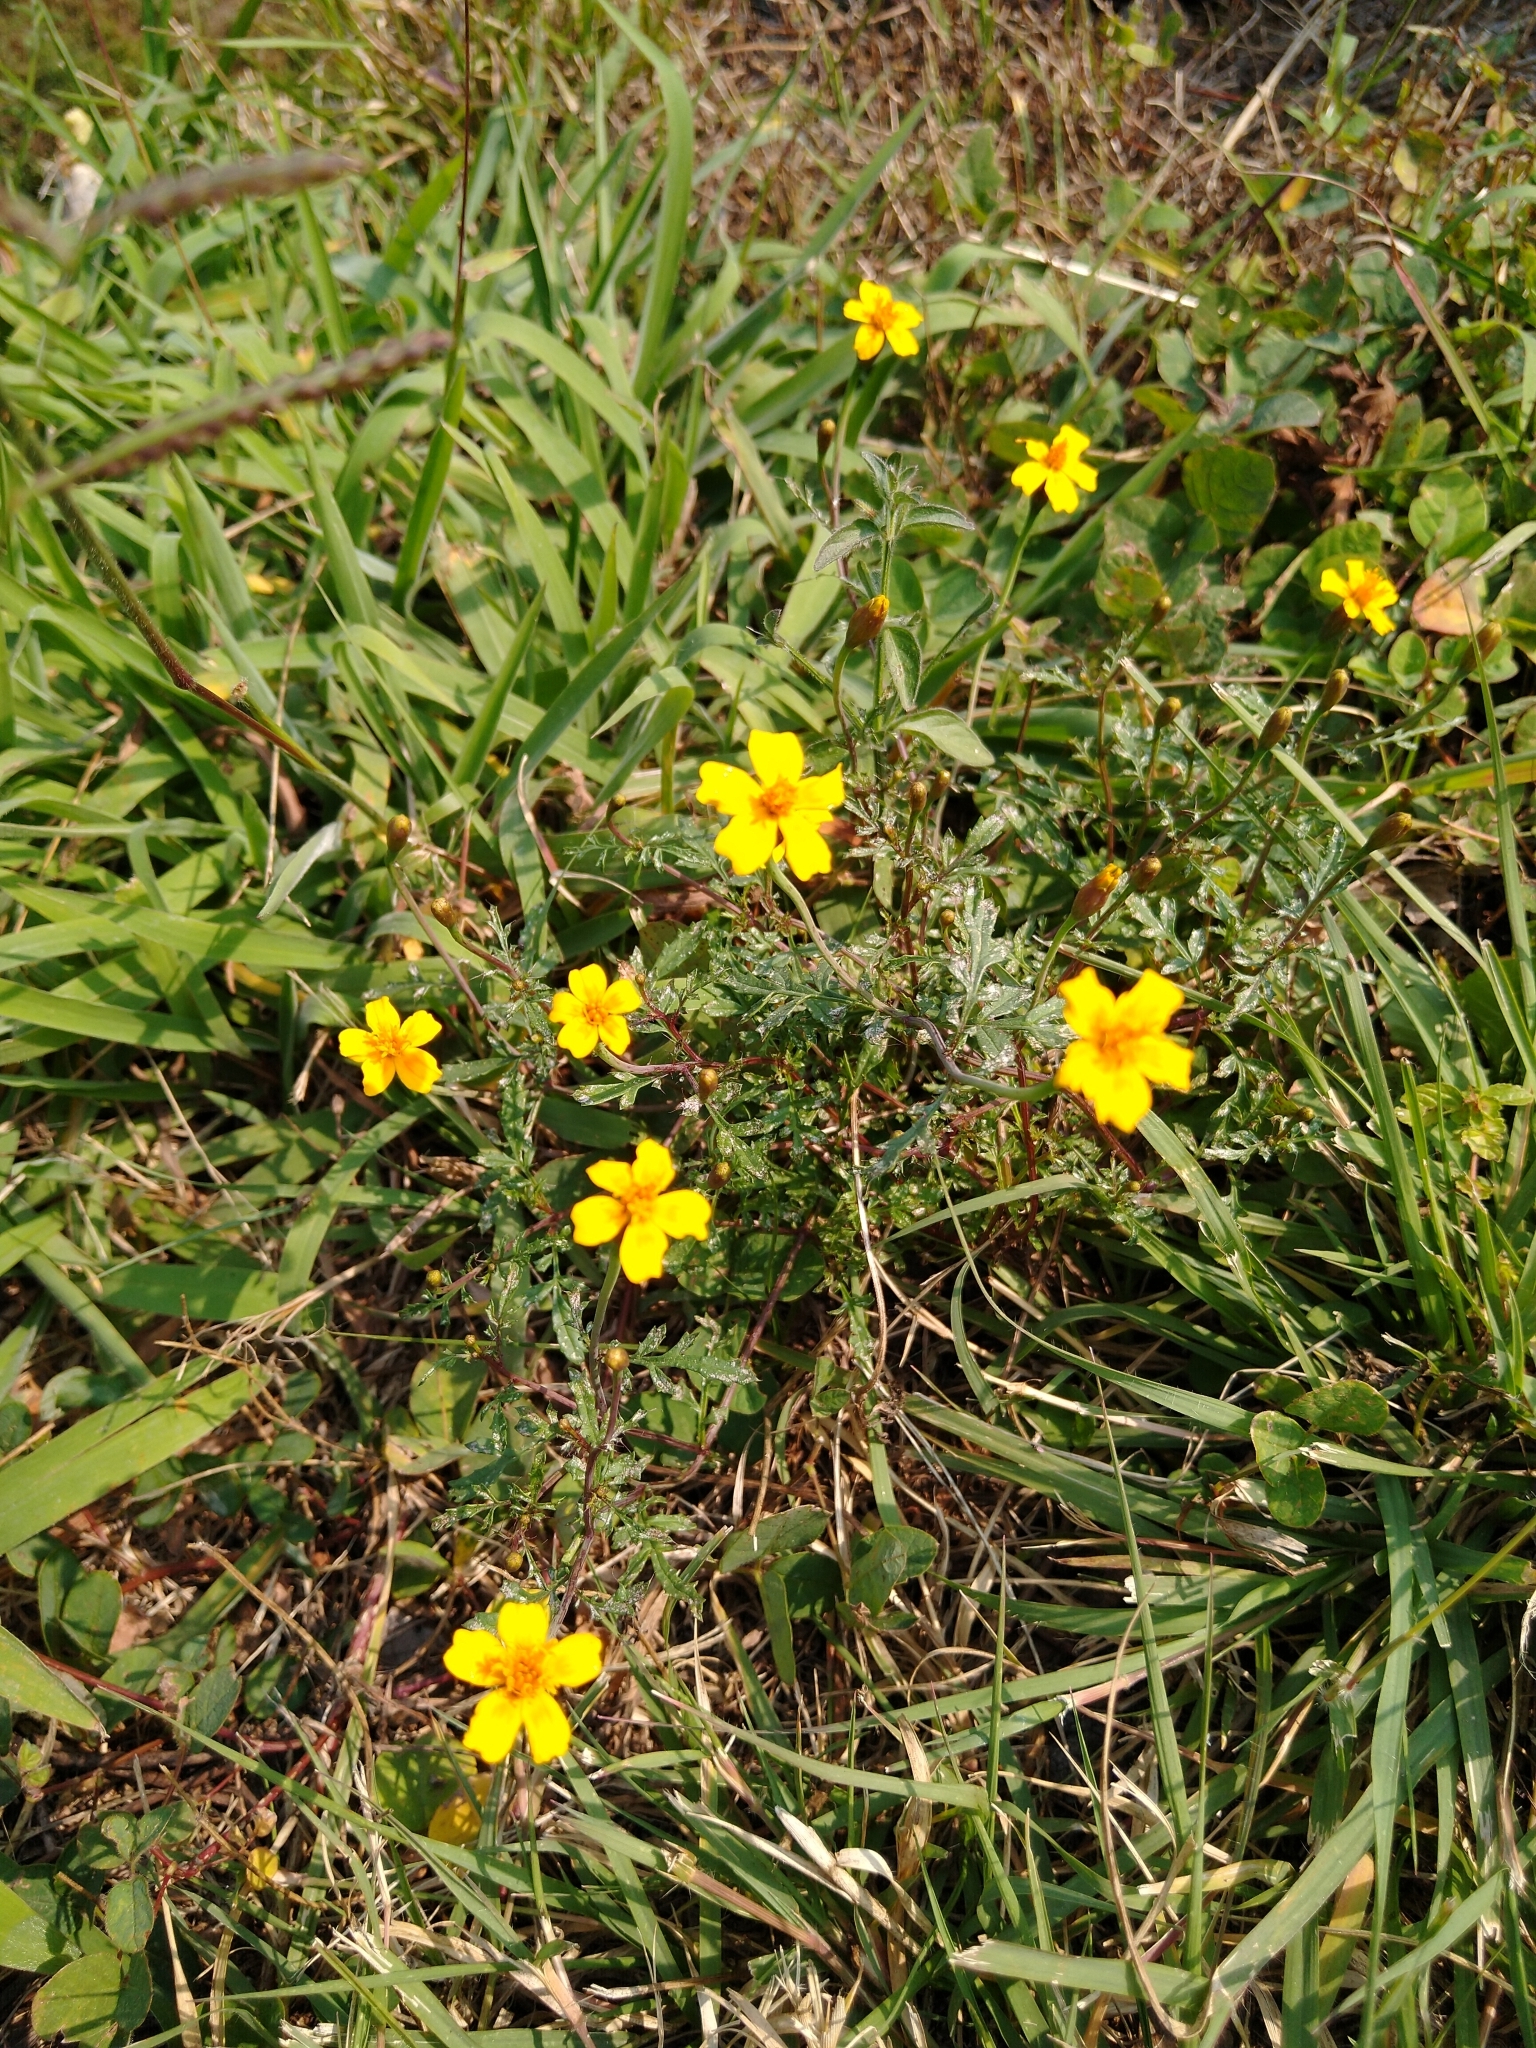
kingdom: Plantae
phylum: Tracheophyta
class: Magnoliopsida
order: Asterales
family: Asteraceae
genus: Tagetes
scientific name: Tagetes lunulata
